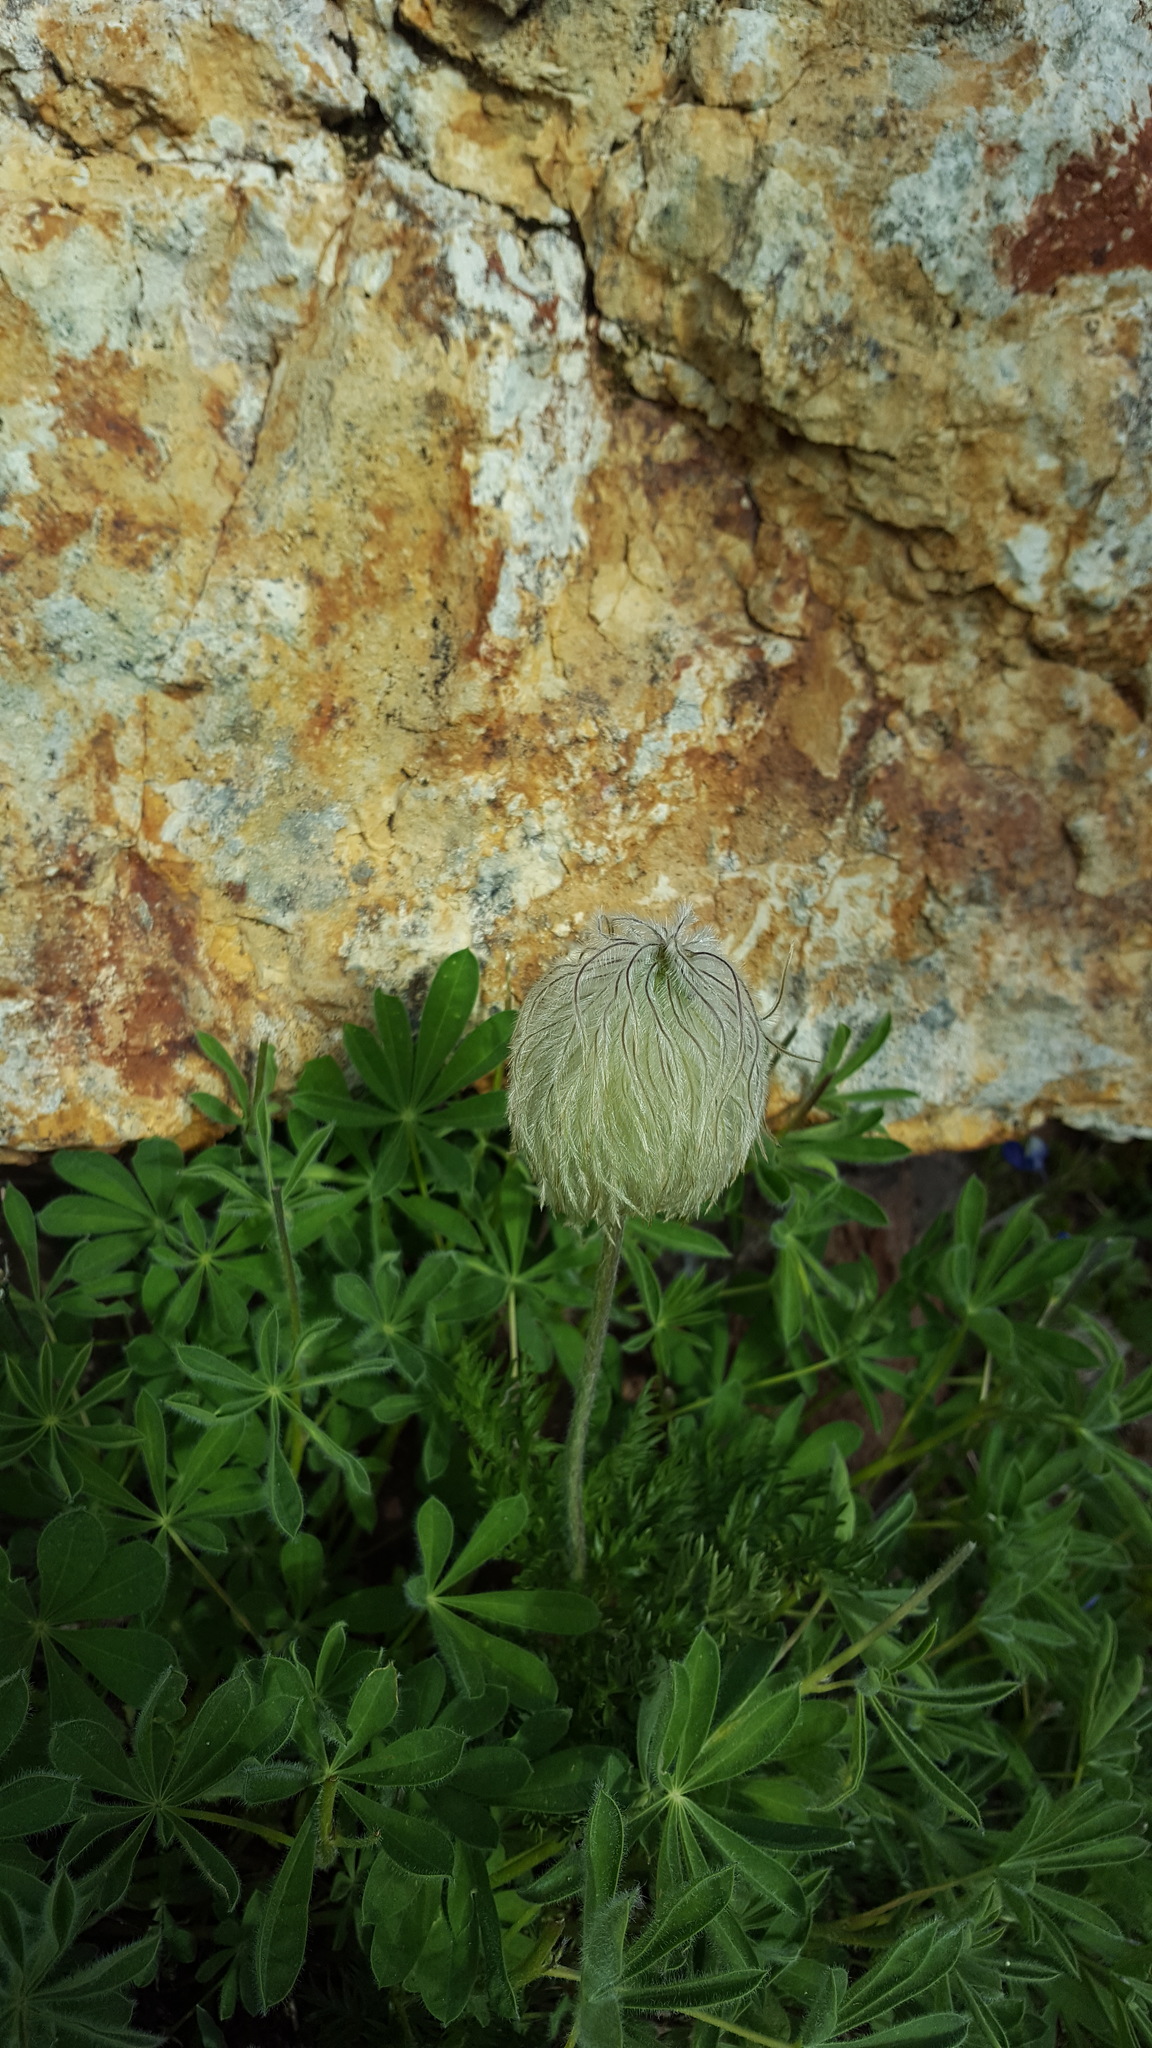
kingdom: Plantae
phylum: Tracheophyta
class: Magnoliopsida
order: Ranunculales
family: Ranunculaceae
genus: Pulsatilla
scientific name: Pulsatilla occidentalis
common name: Mountain pasqueflower
